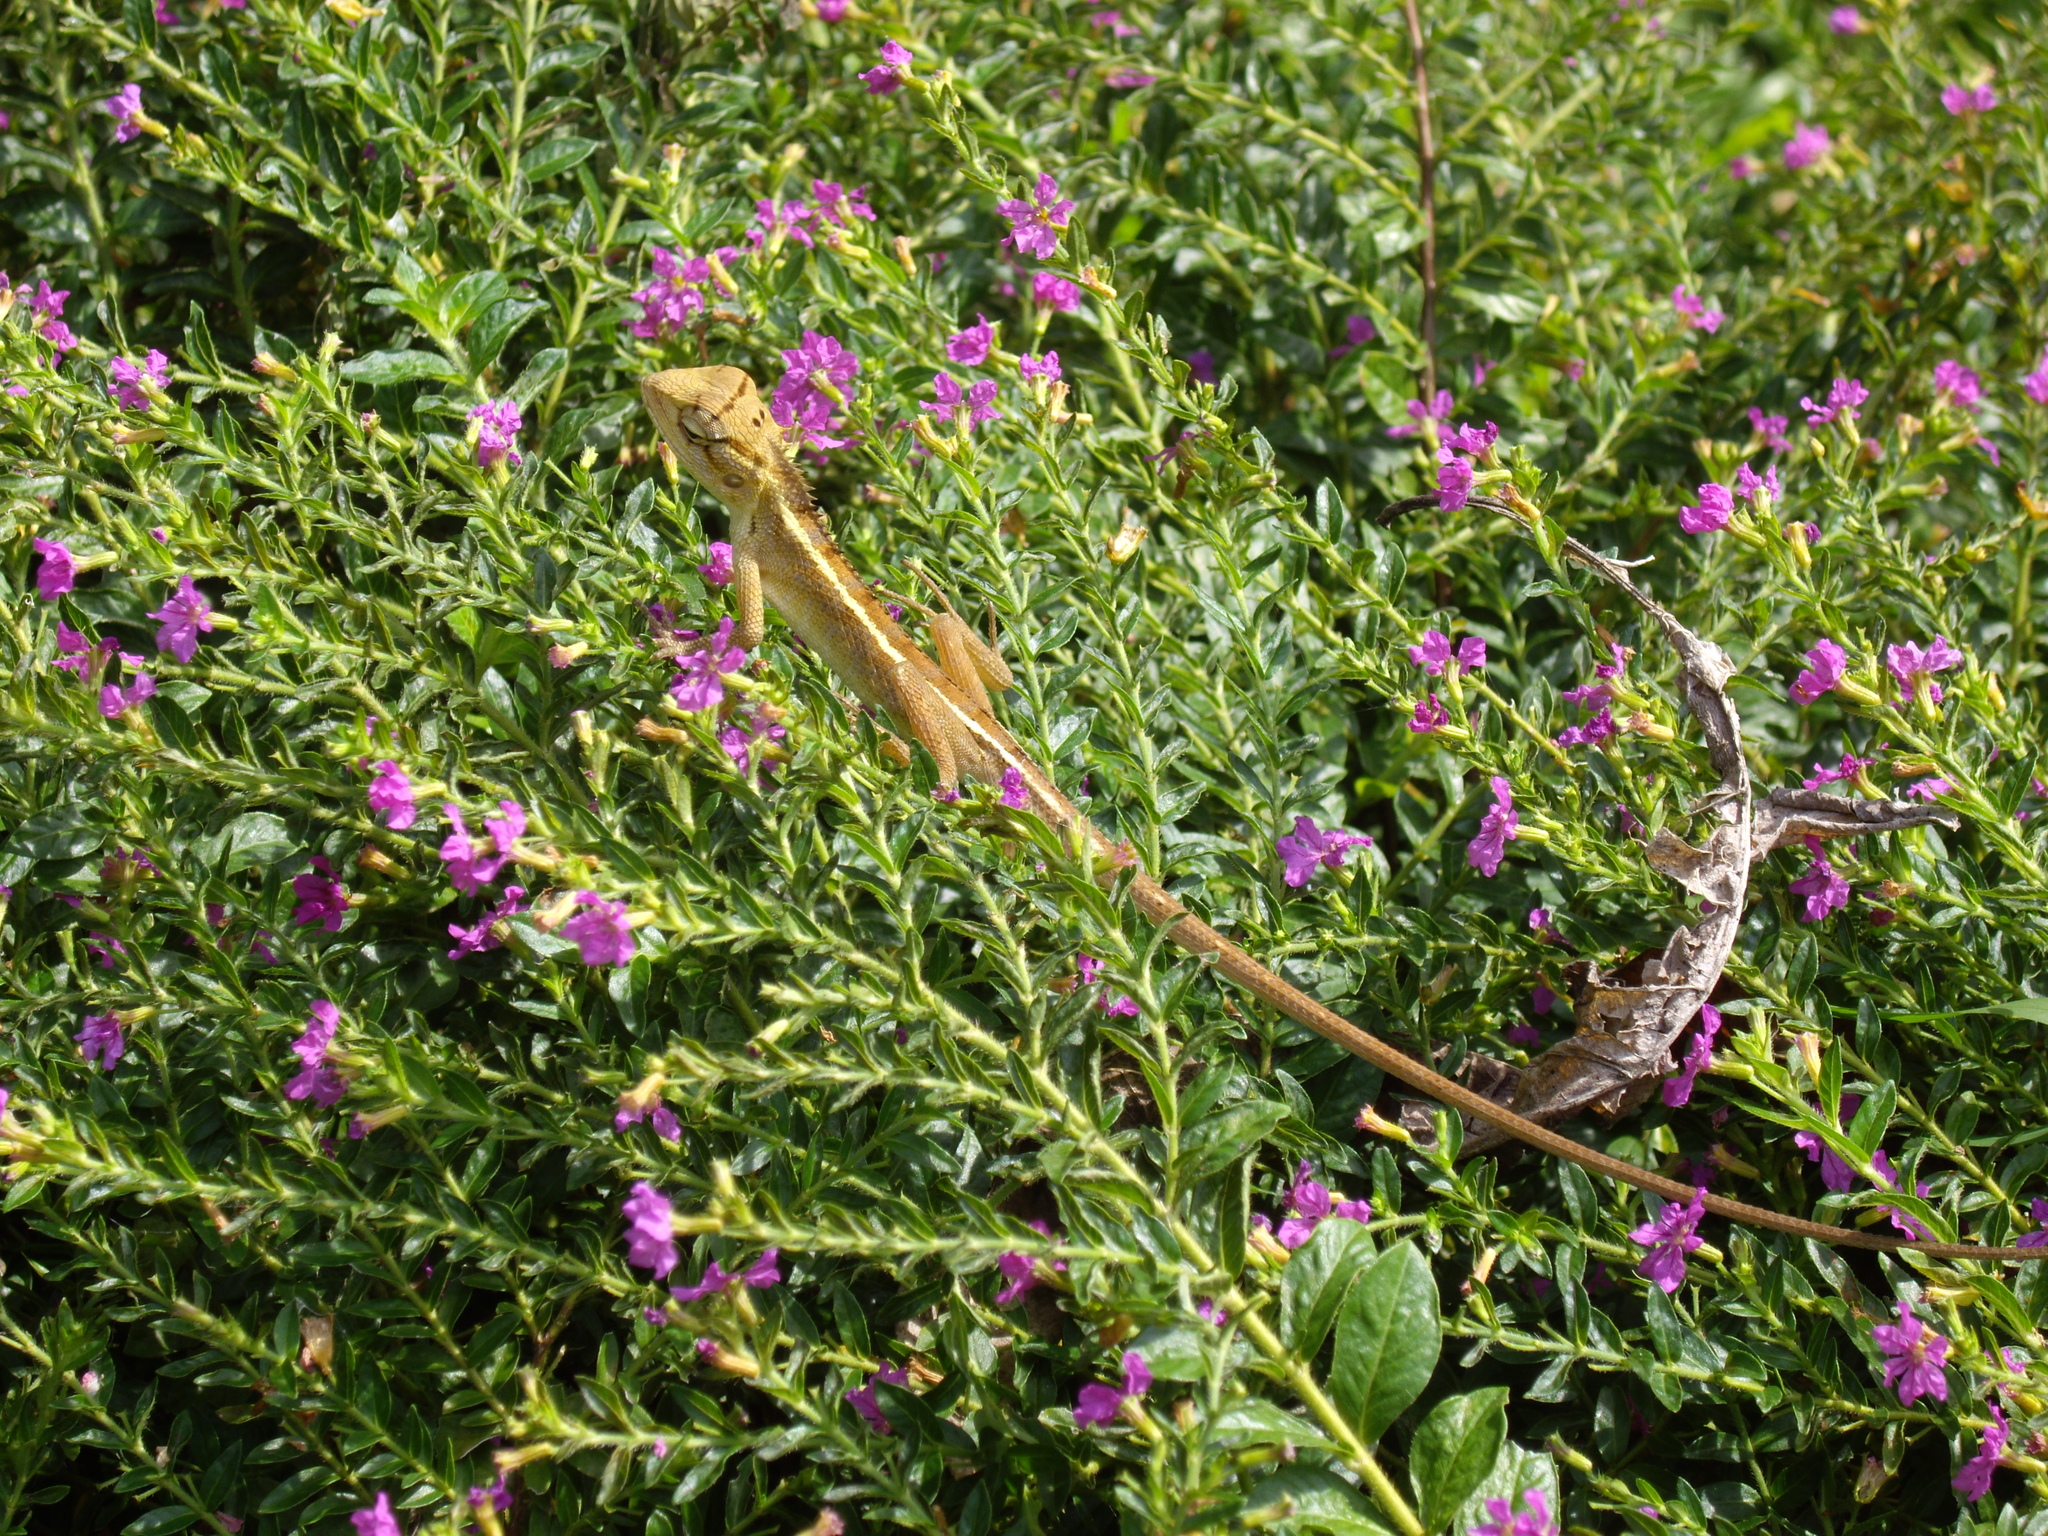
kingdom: Animalia
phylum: Chordata
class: Squamata
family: Agamidae
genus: Calotes
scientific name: Calotes versicolor
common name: Oriental garden lizard
